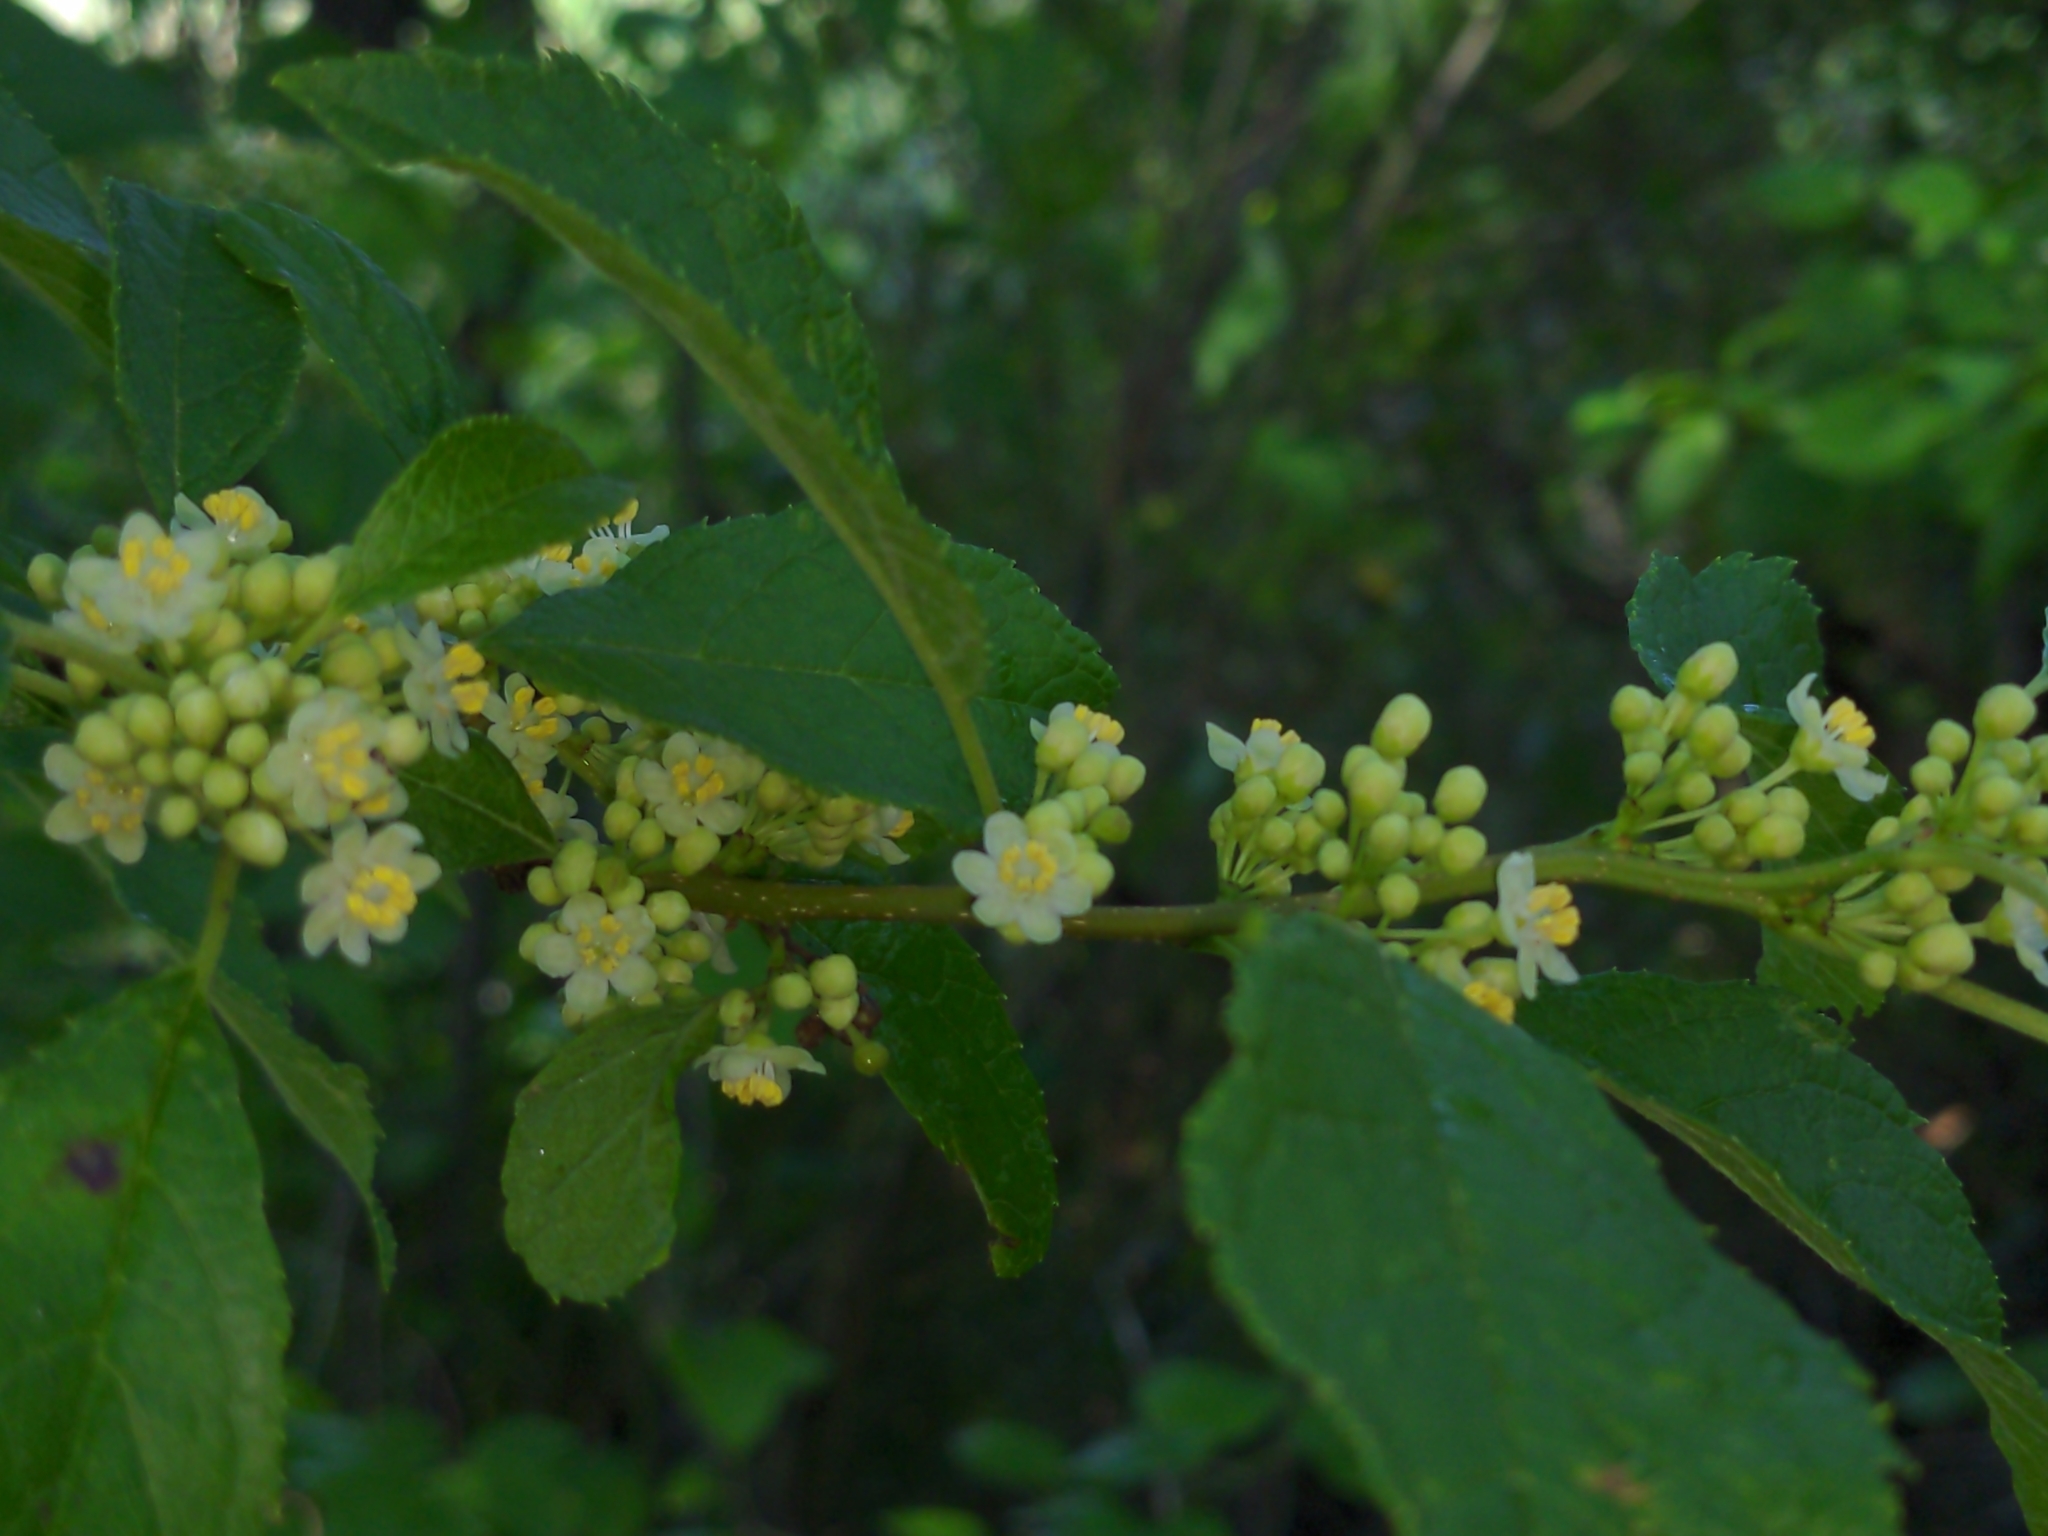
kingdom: Plantae
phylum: Tracheophyta
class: Magnoliopsida
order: Aquifoliales
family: Aquifoliaceae
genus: Ilex
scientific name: Ilex verticillata
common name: Virginia winterberry
